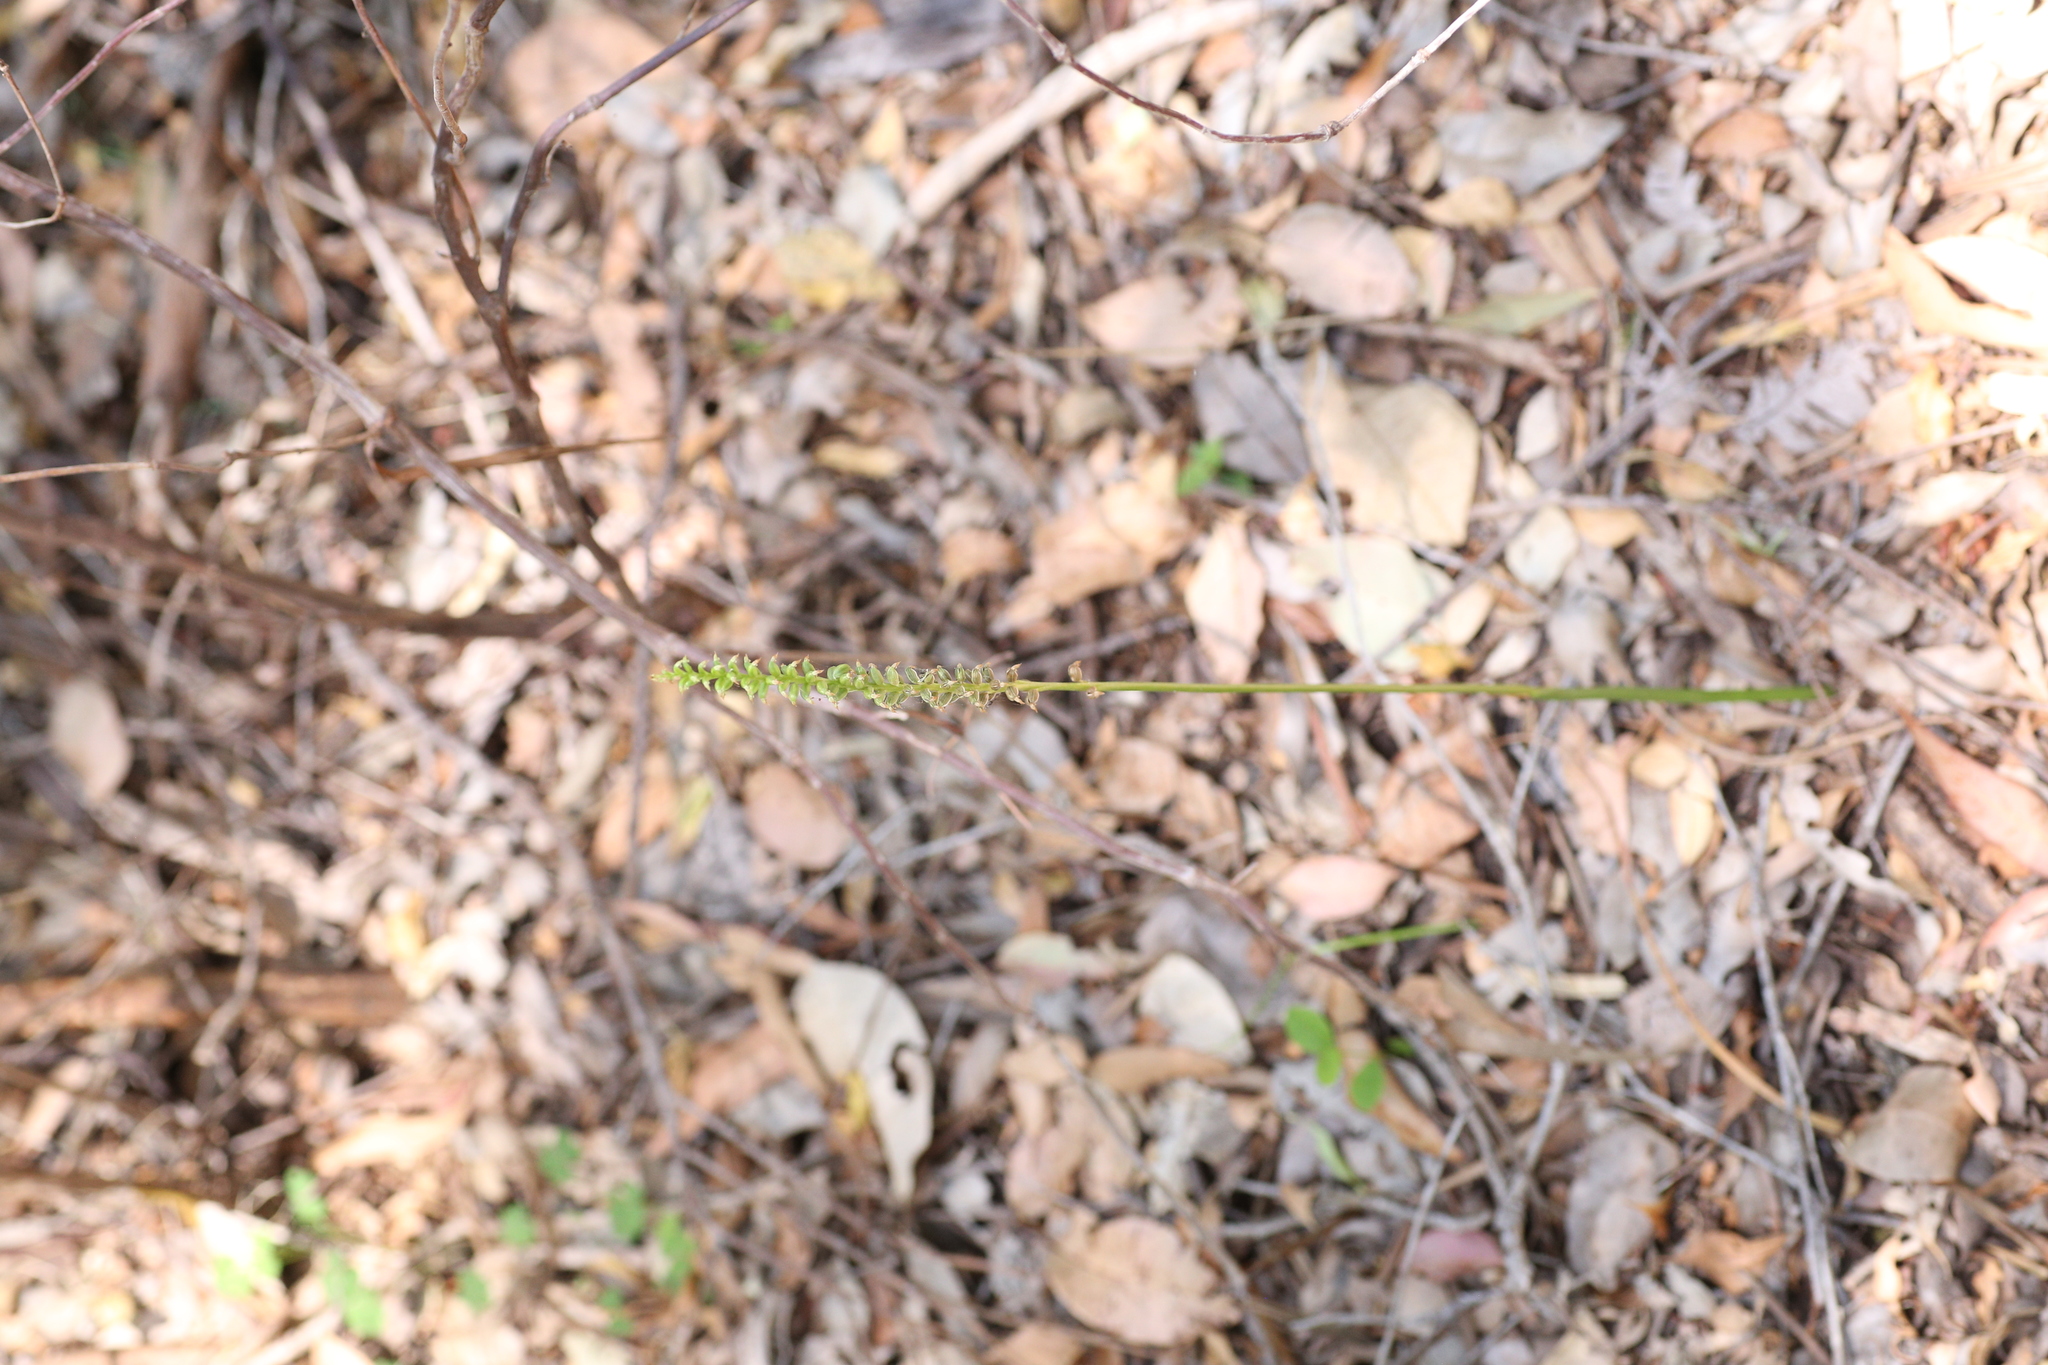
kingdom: Plantae
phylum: Tracheophyta
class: Liliopsida
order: Asparagales
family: Orchidaceae
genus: Microtis
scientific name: Microtis media
